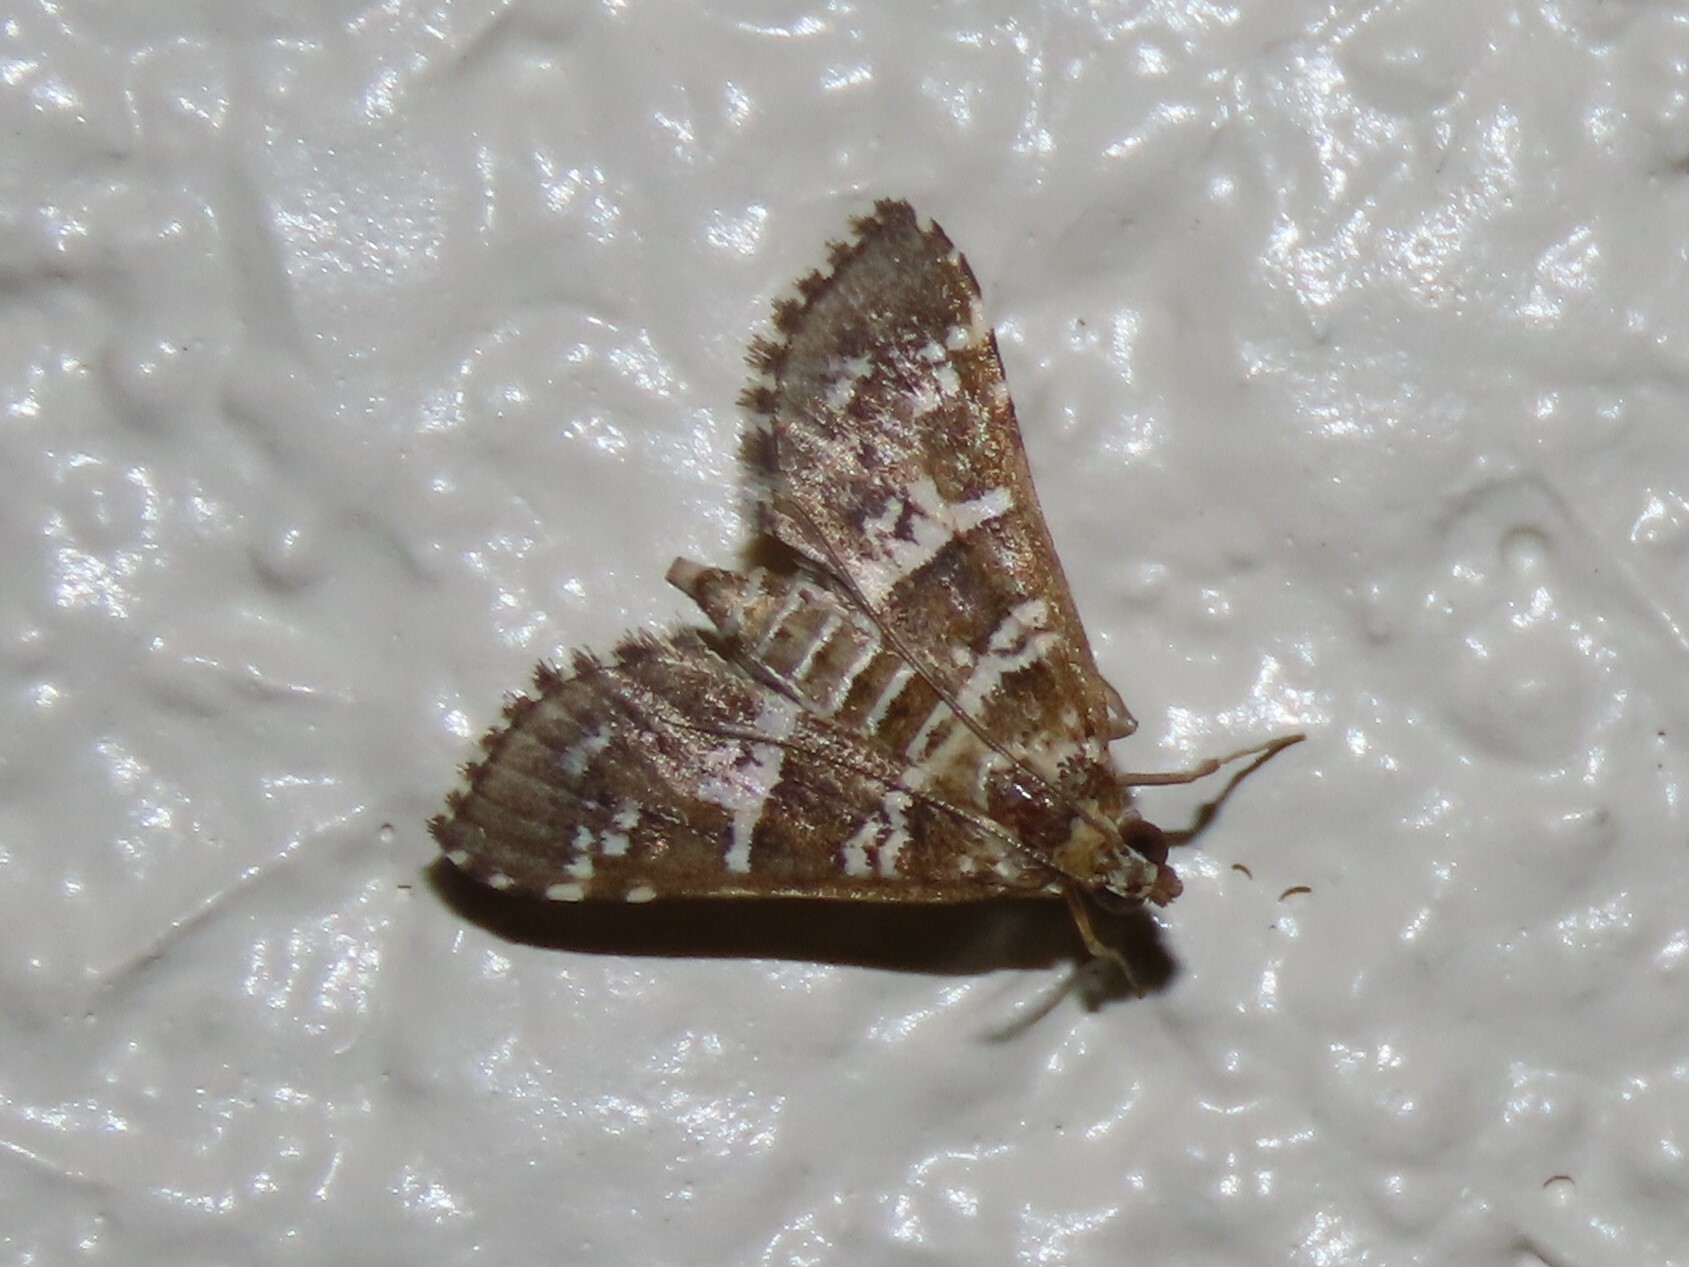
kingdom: Animalia
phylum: Arthropoda
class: Insecta
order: Lepidoptera
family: Crambidae
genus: Samea
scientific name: Samea druchachalis
